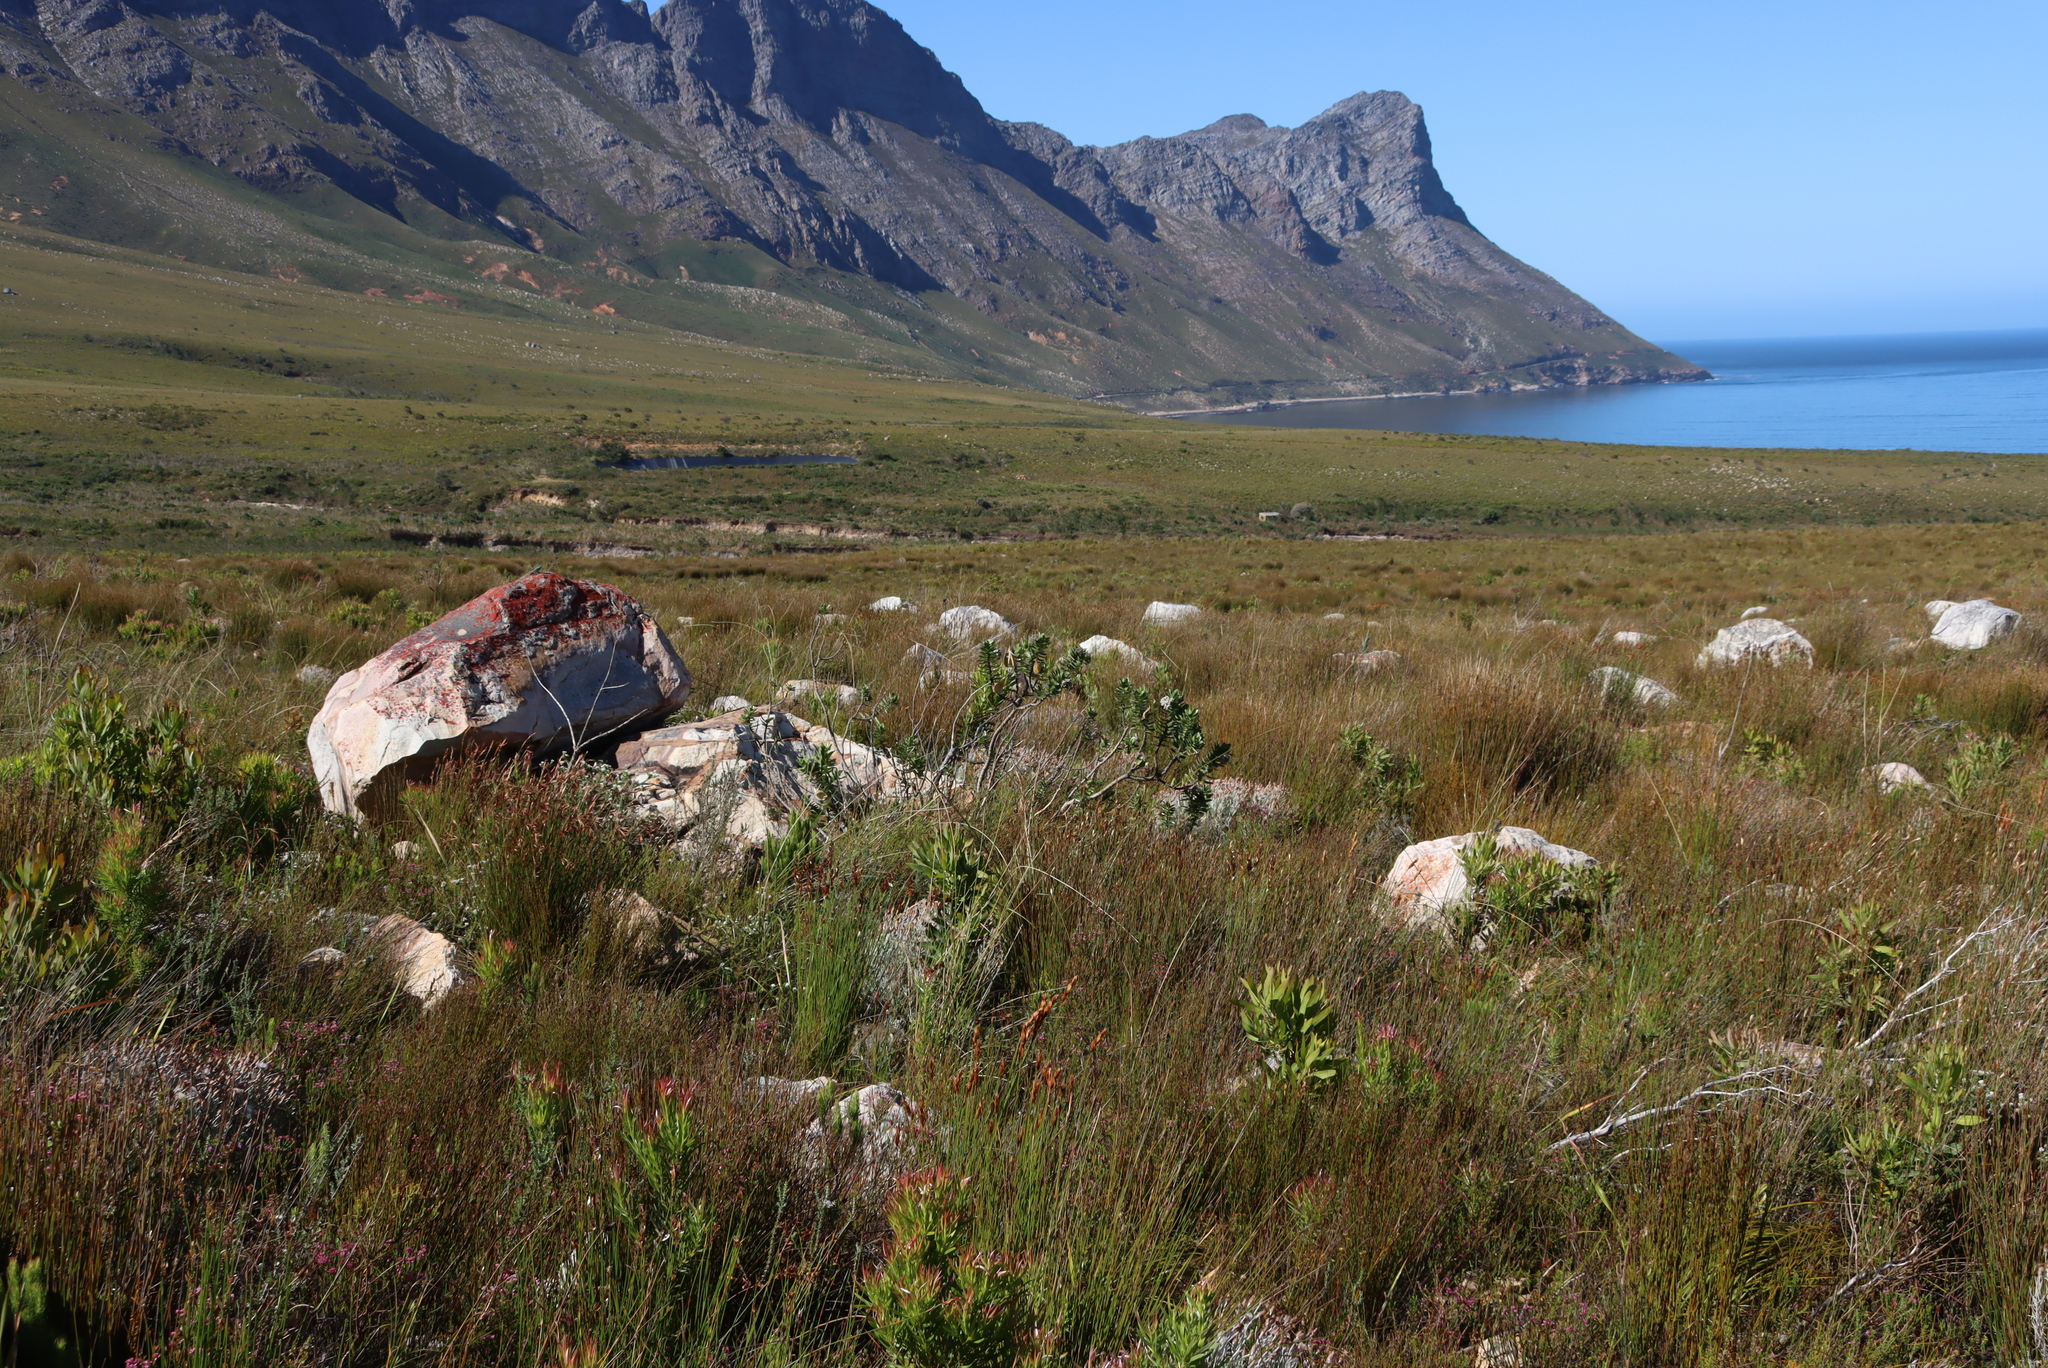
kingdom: Plantae
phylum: Tracheophyta
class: Magnoliopsida
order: Gentianales
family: Apocynaceae
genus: Gomphocarpus
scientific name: Gomphocarpus cancellatus
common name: Wild cotton
